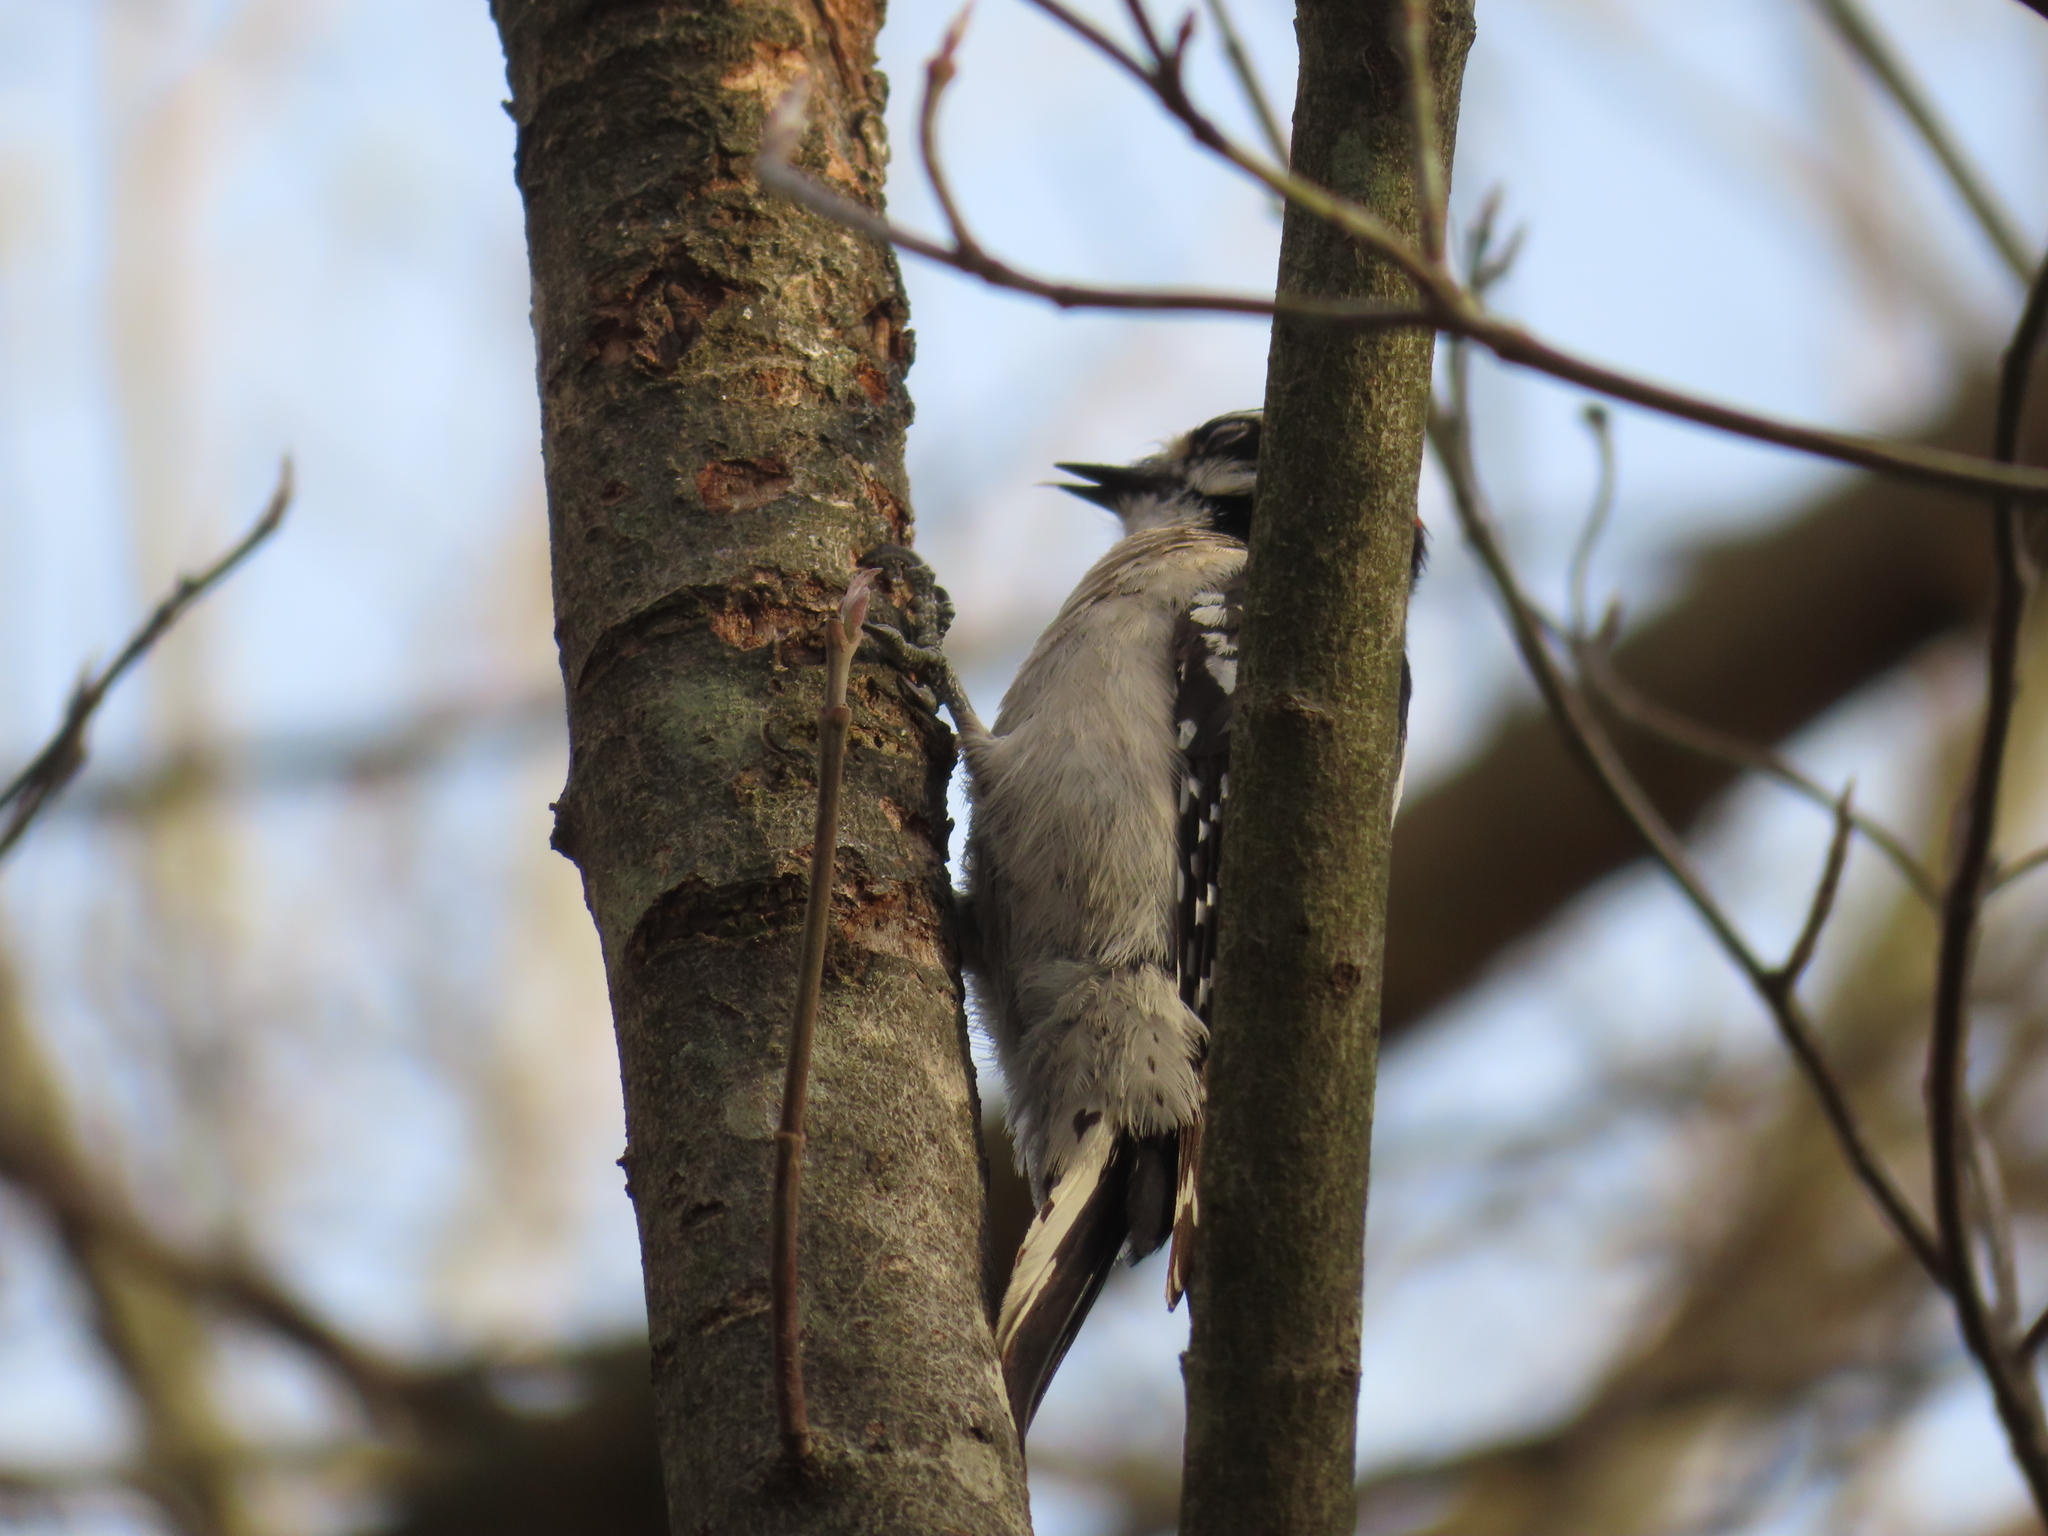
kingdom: Animalia
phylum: Chordata
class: Aves
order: Piciformes
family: Picidae
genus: Dryobates
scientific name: Dryobates pubescens
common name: Downy woodpecker
